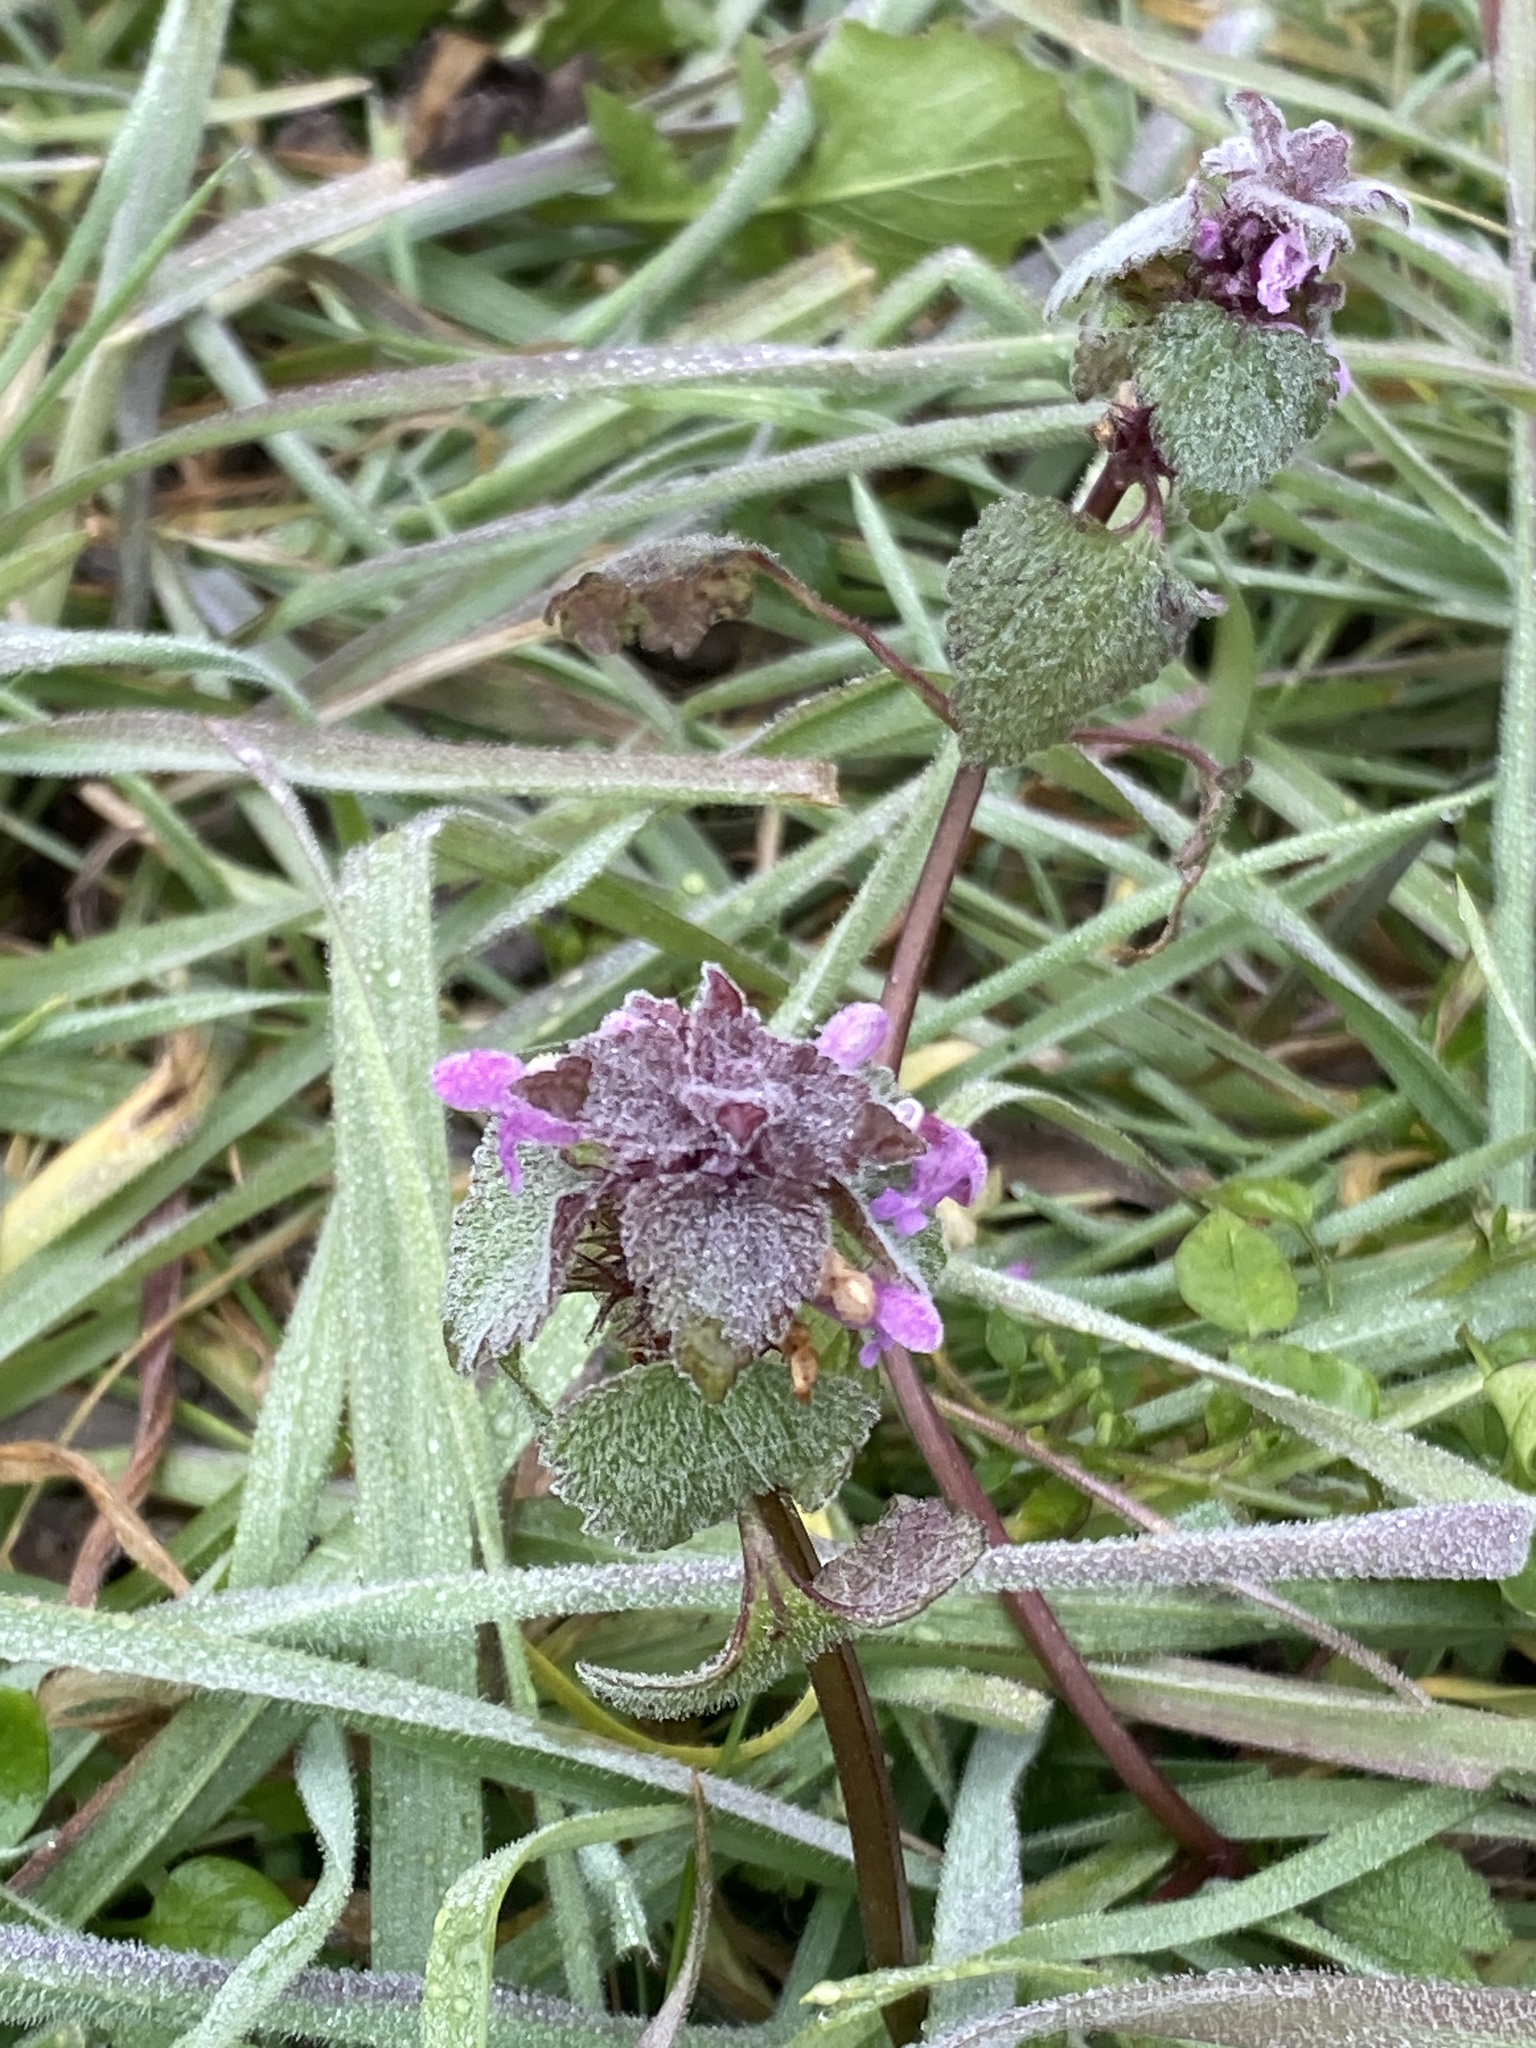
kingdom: Plantae
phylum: Tracheophyta
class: Magnoliopsida
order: Lamiales
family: Lamiaceae
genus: Lamium
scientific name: Lamium purpureum
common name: Red dead-nettle
